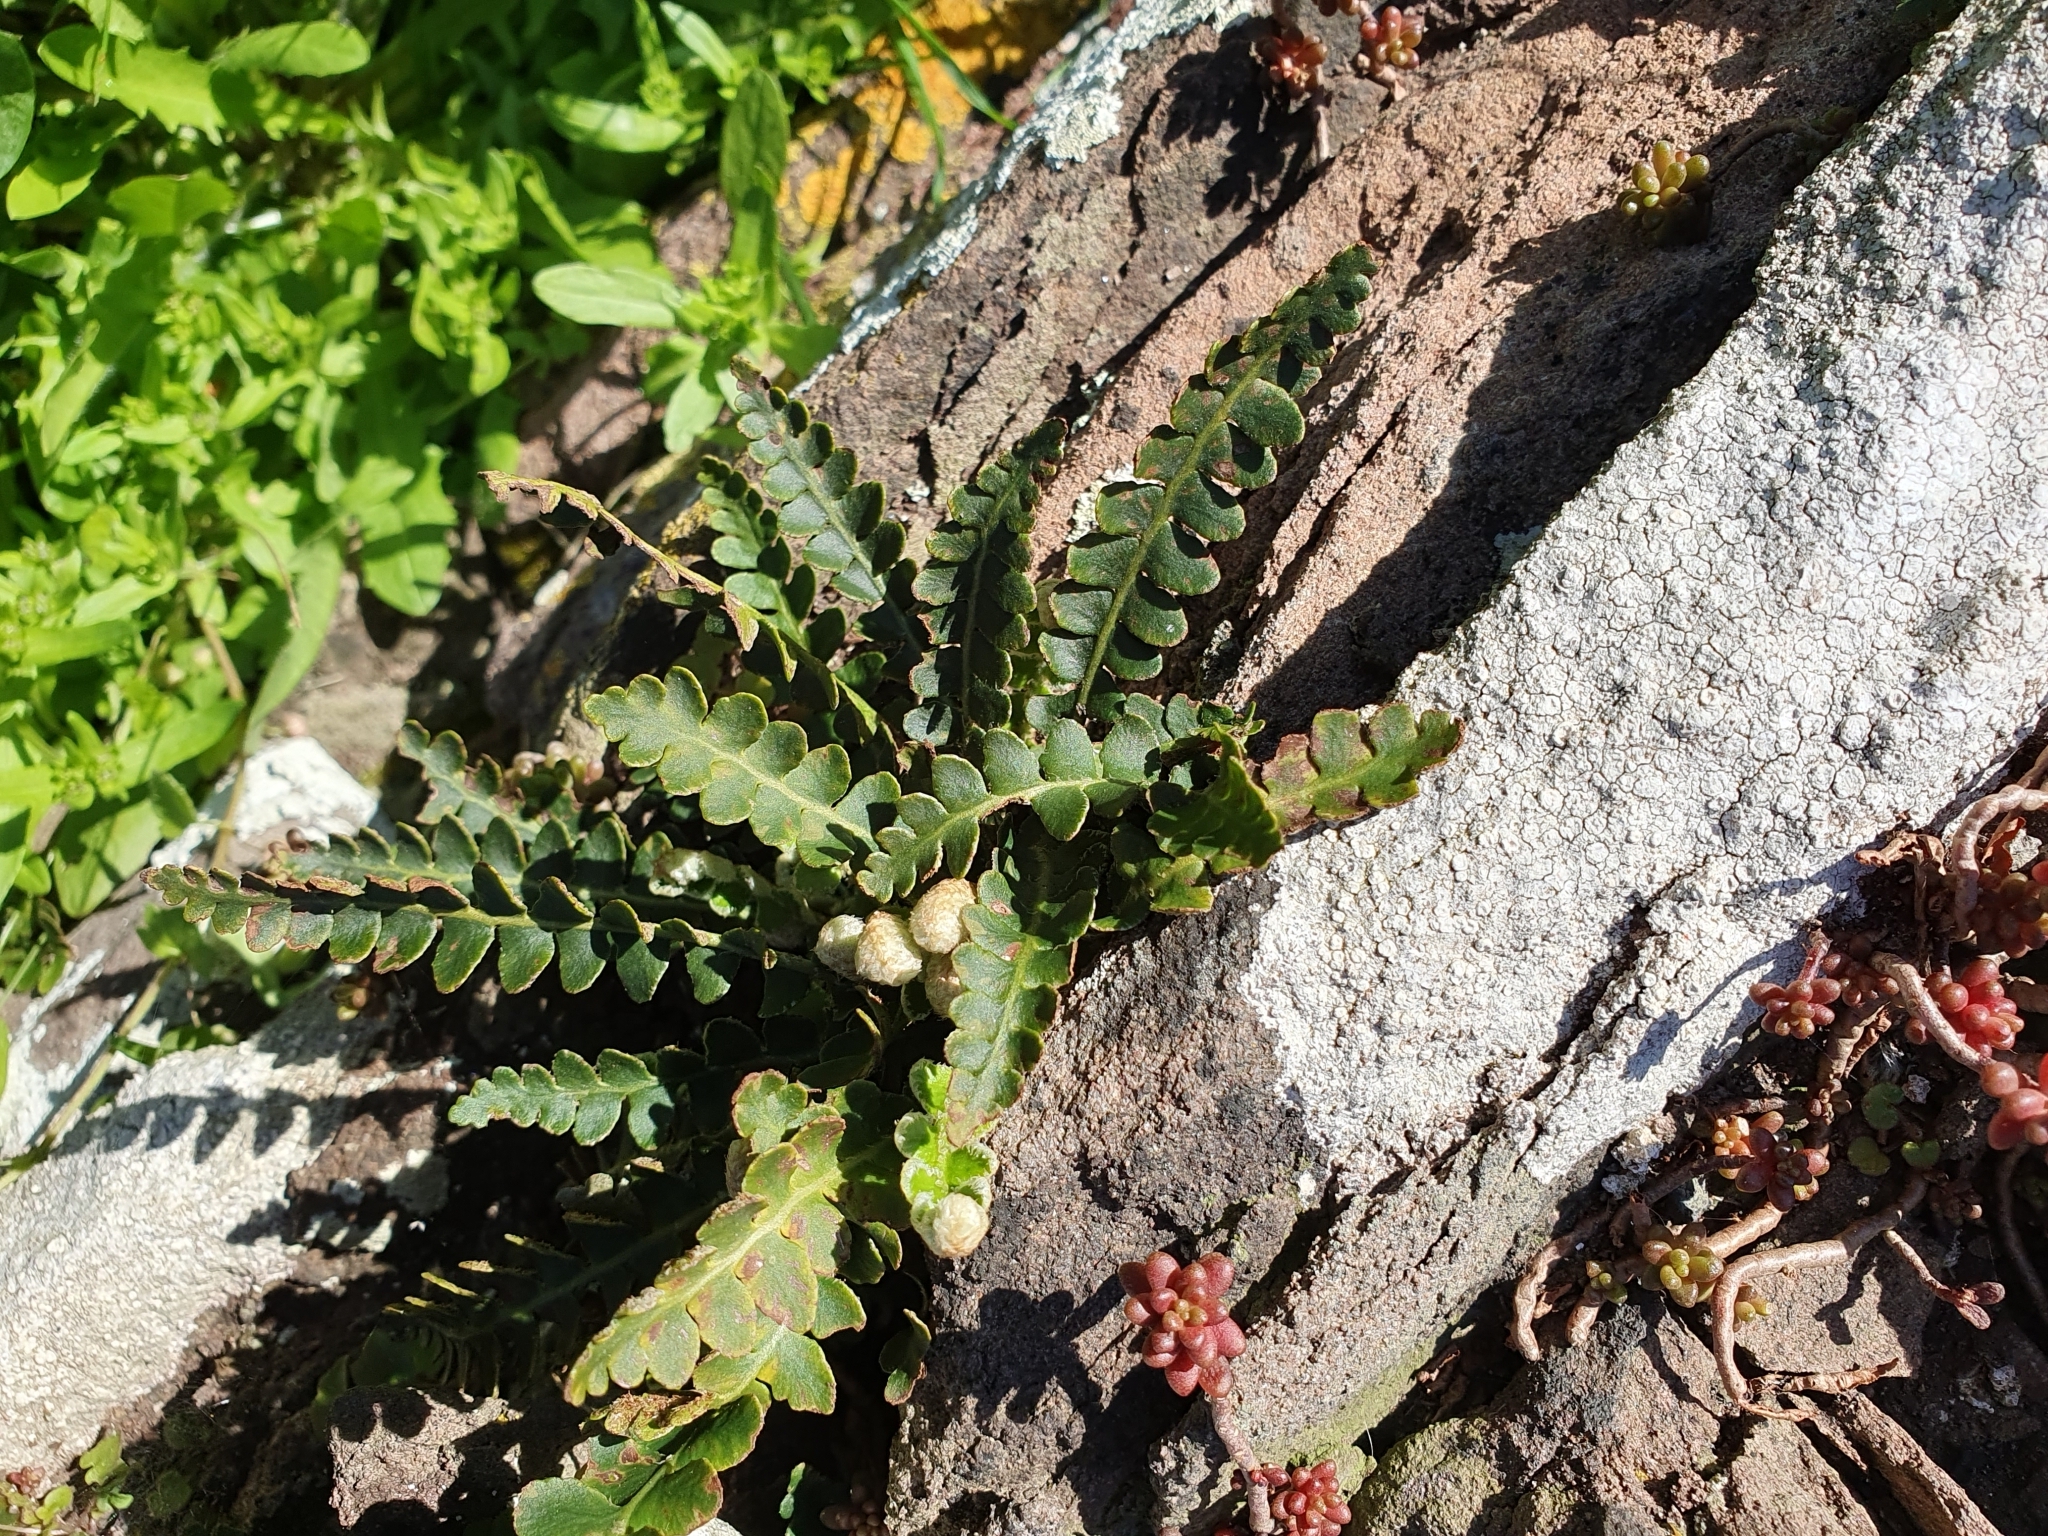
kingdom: Plantae
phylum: Tracheophyta
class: Polypodiopsida
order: Polypodiales
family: Aspleniaceae
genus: Asplenium
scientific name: Asplenium ceterach
